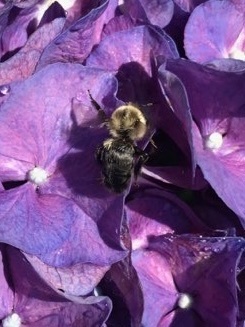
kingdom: Animalia
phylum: Arthropoda
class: Insecta
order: Hymenoptera
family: Apidae
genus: Bombus
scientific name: Bombus impatiens
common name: Common eastern bumble bee
